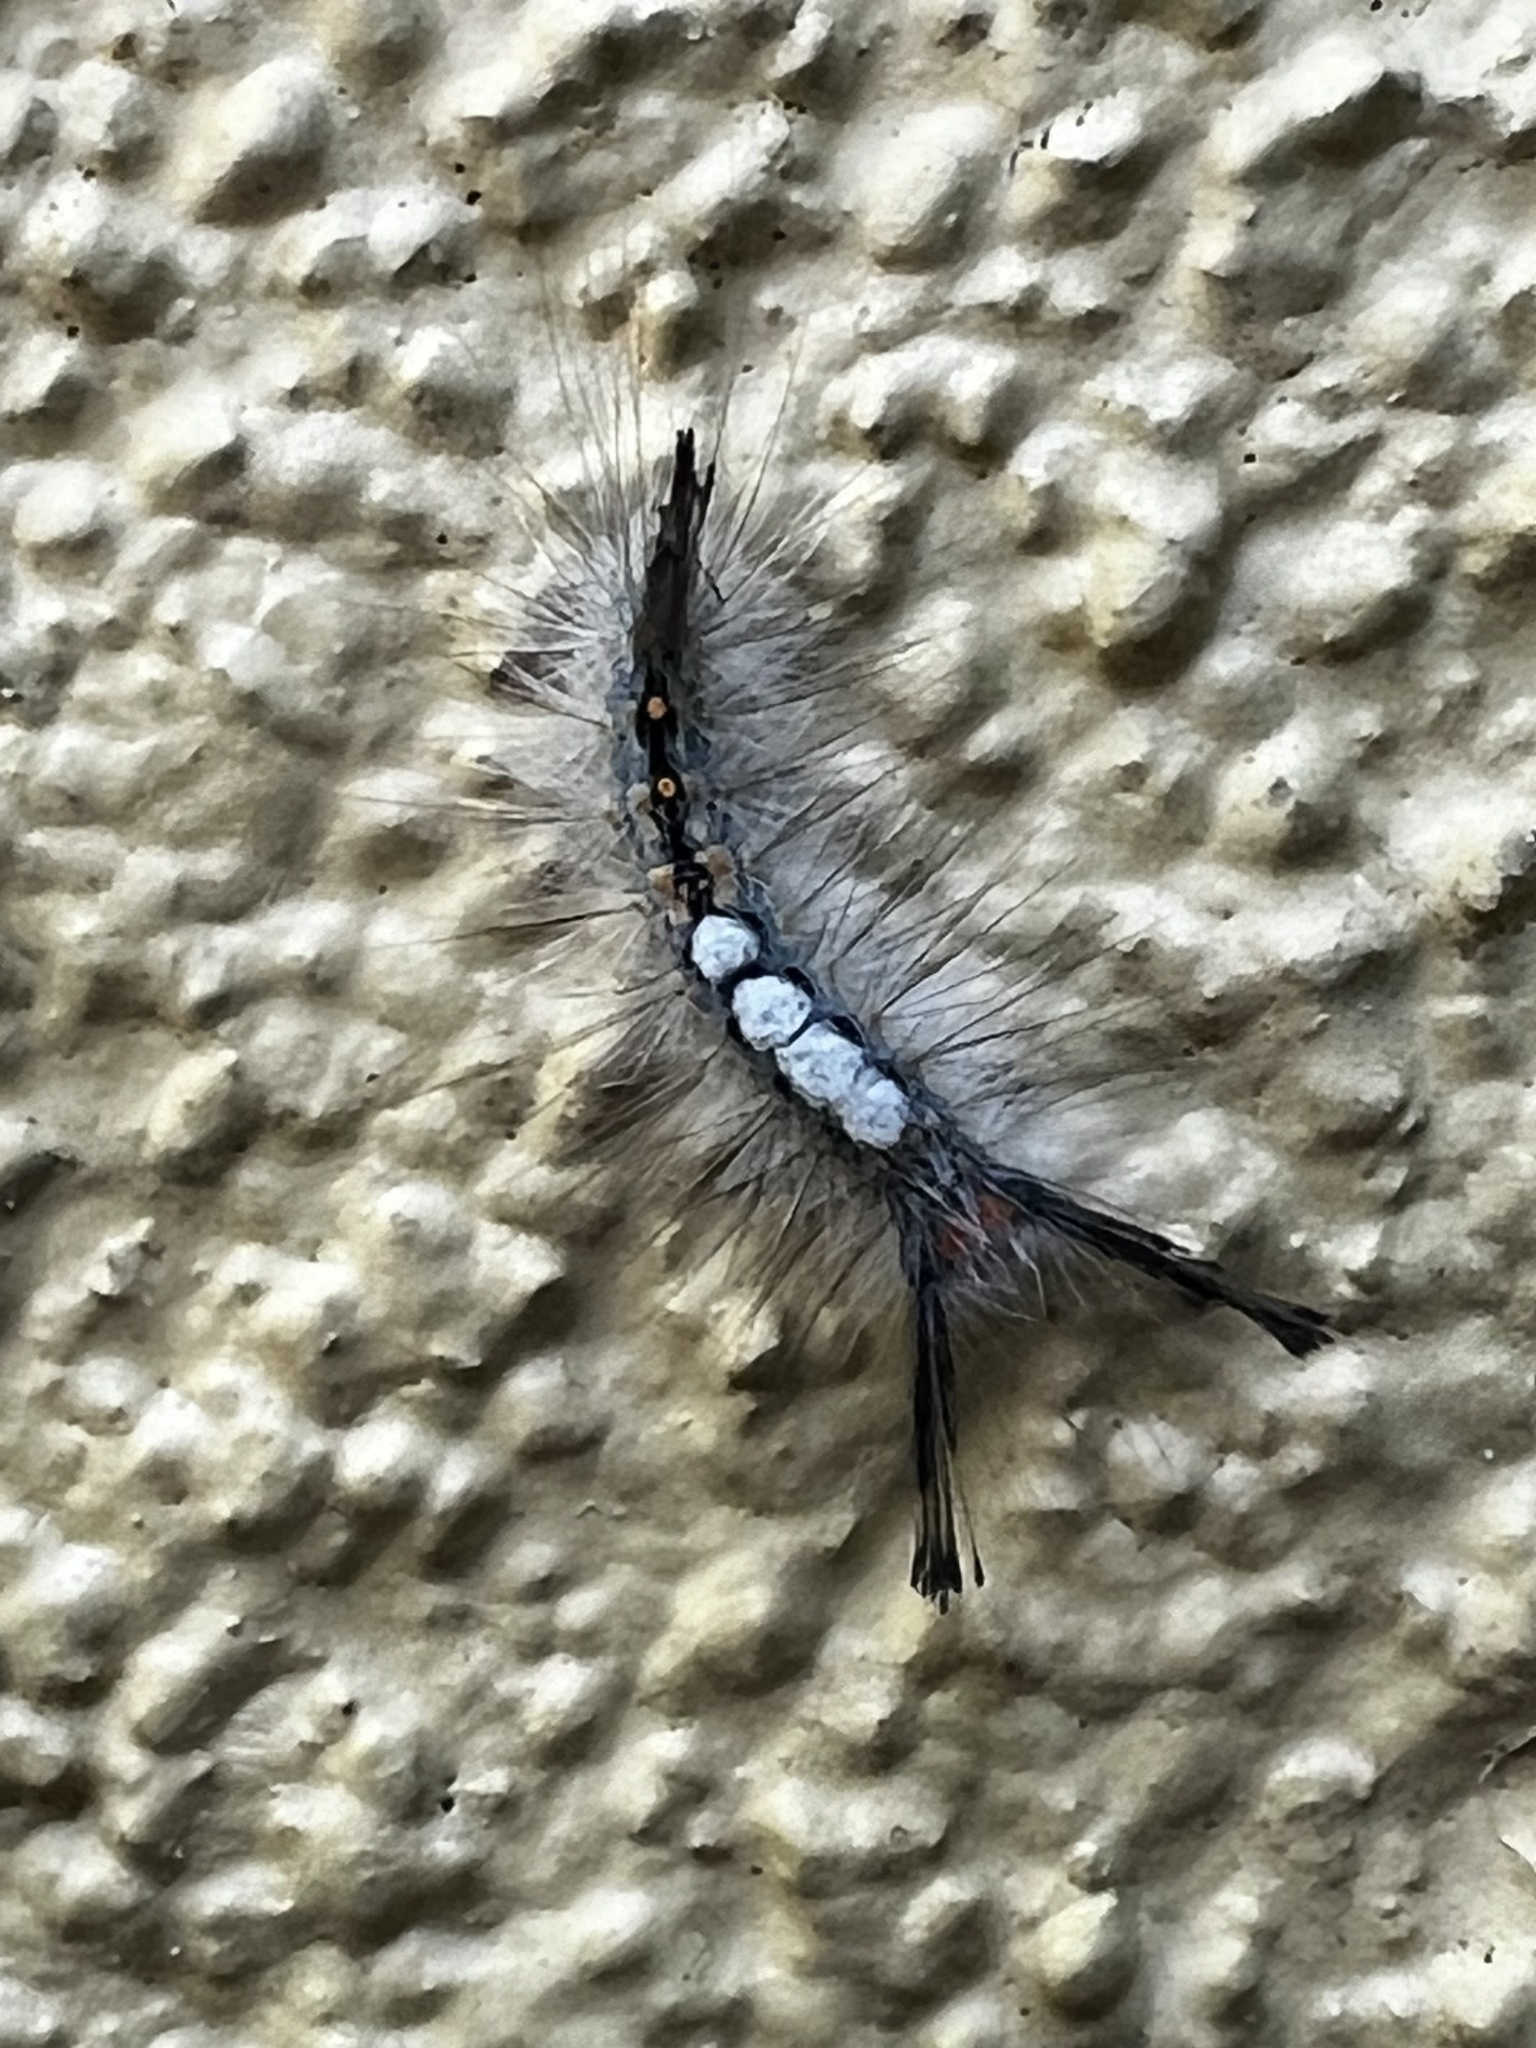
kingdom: Animalia
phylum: Arthropoda
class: Insecta
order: Lepidoptera
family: Erebidae
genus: Orgyia
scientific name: Orgyia detrita
